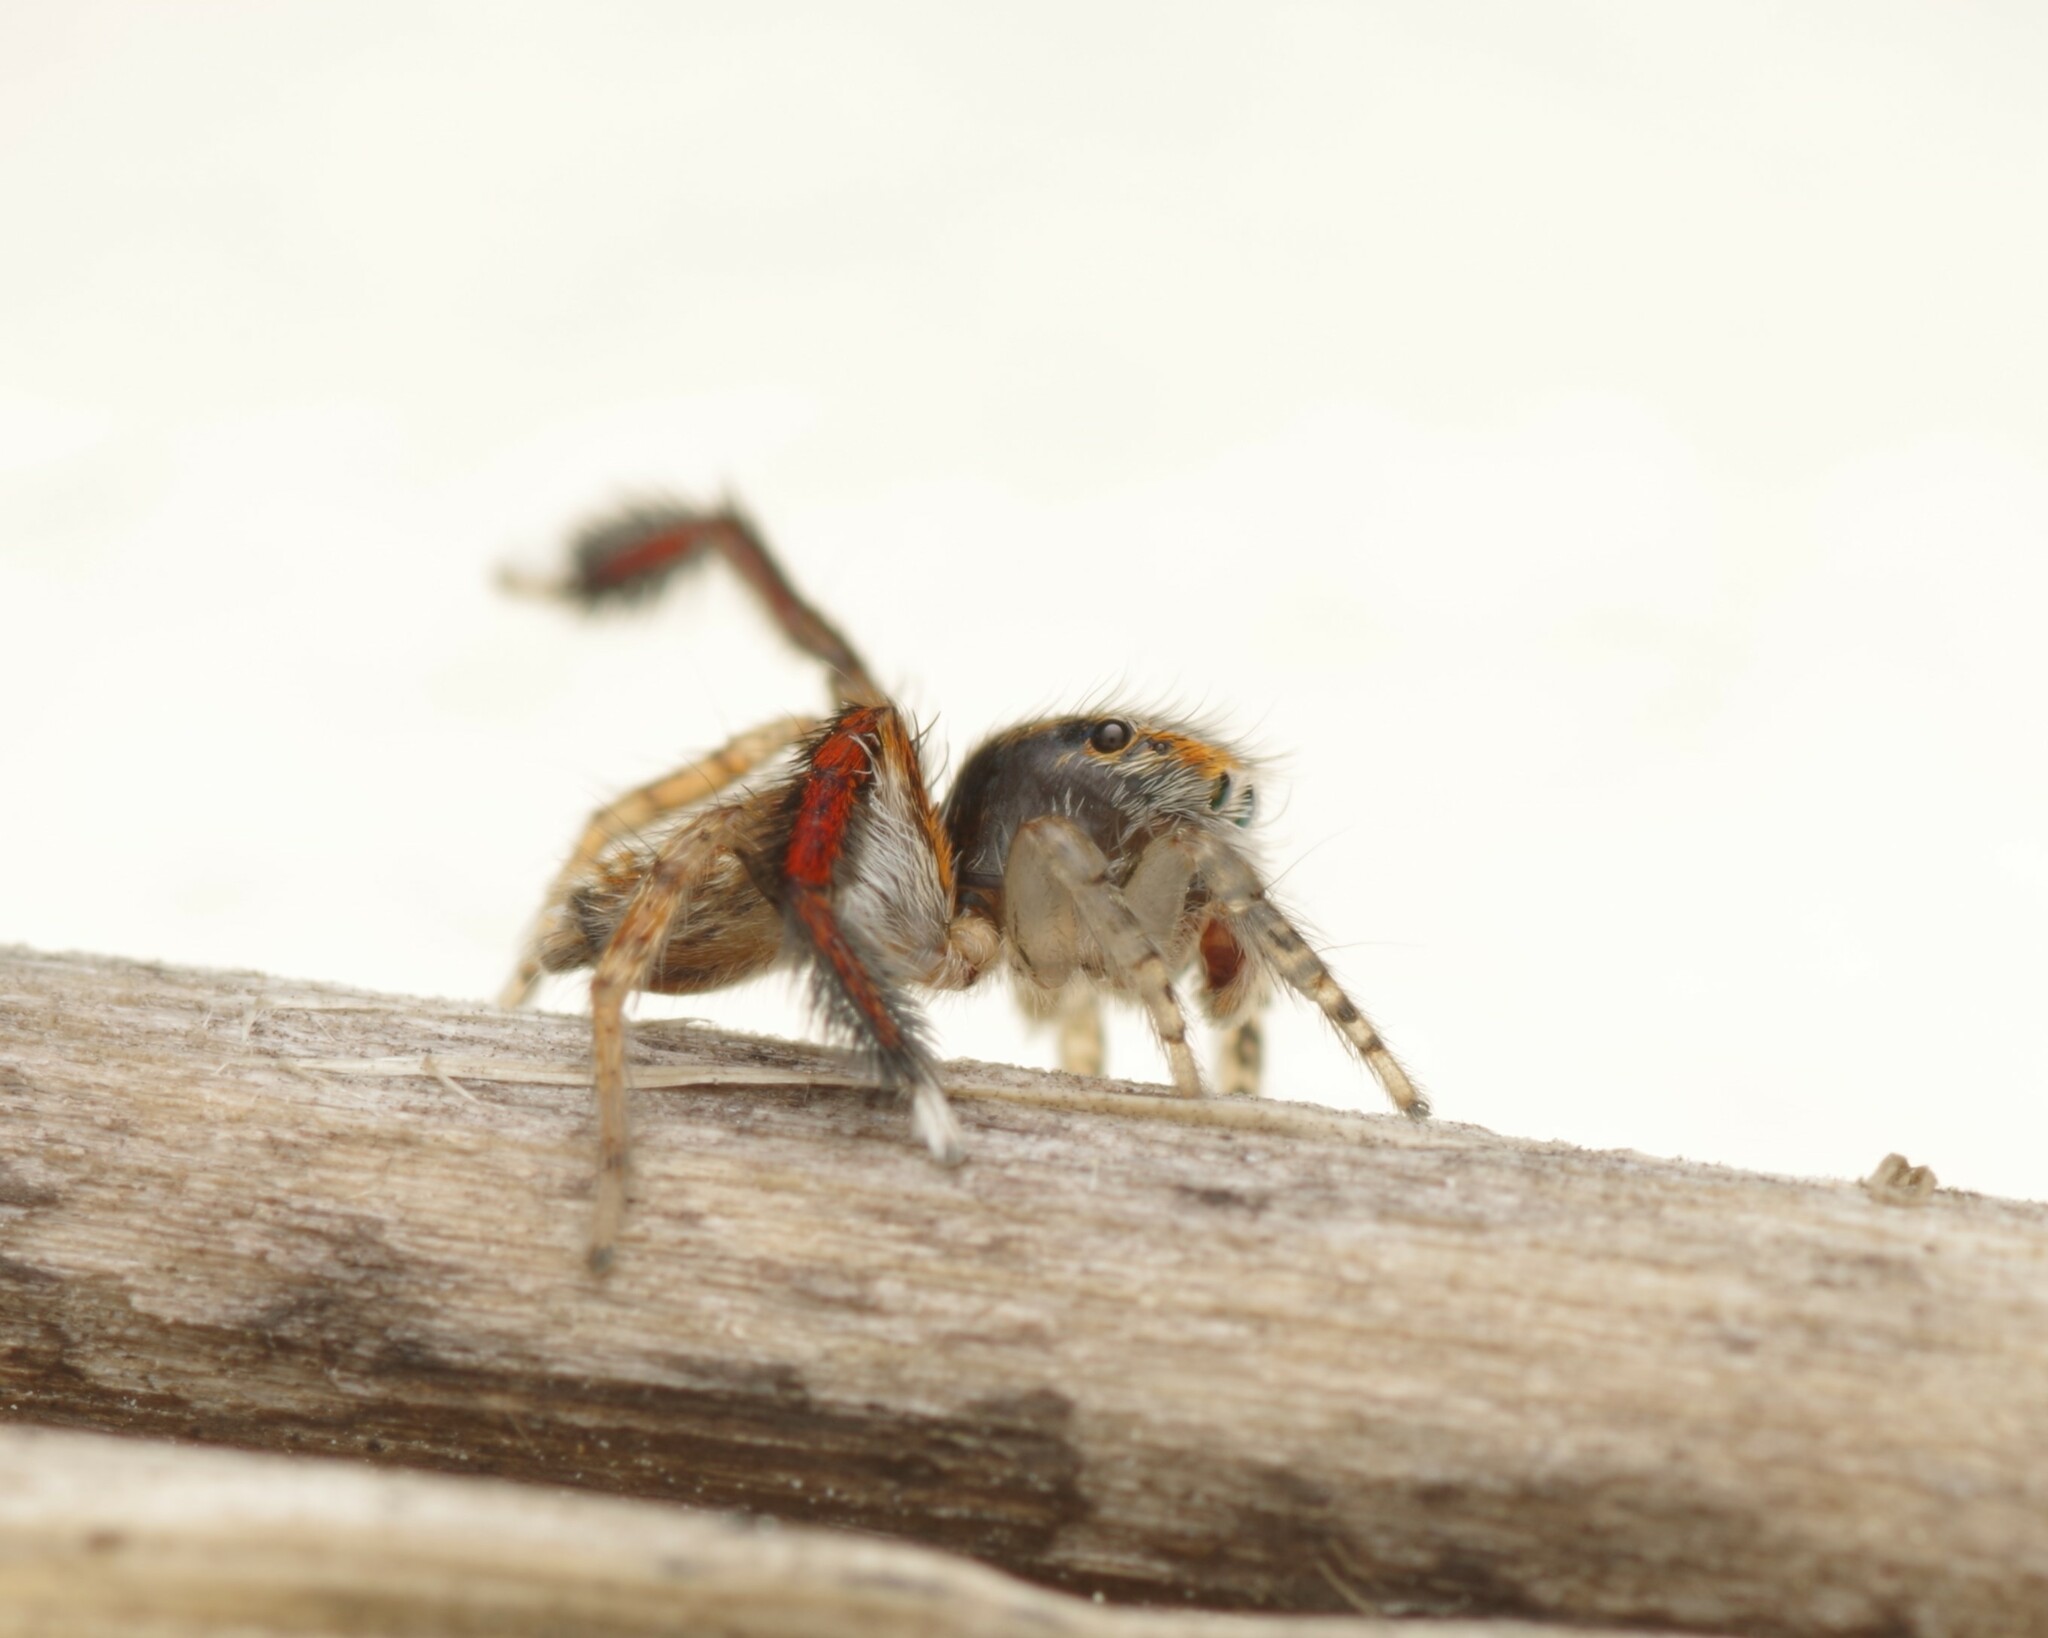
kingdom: Animalia
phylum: Arthropoda
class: Arachnida
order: Araneae
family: Salticidae
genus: Saitis
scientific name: Saitis barbipes
